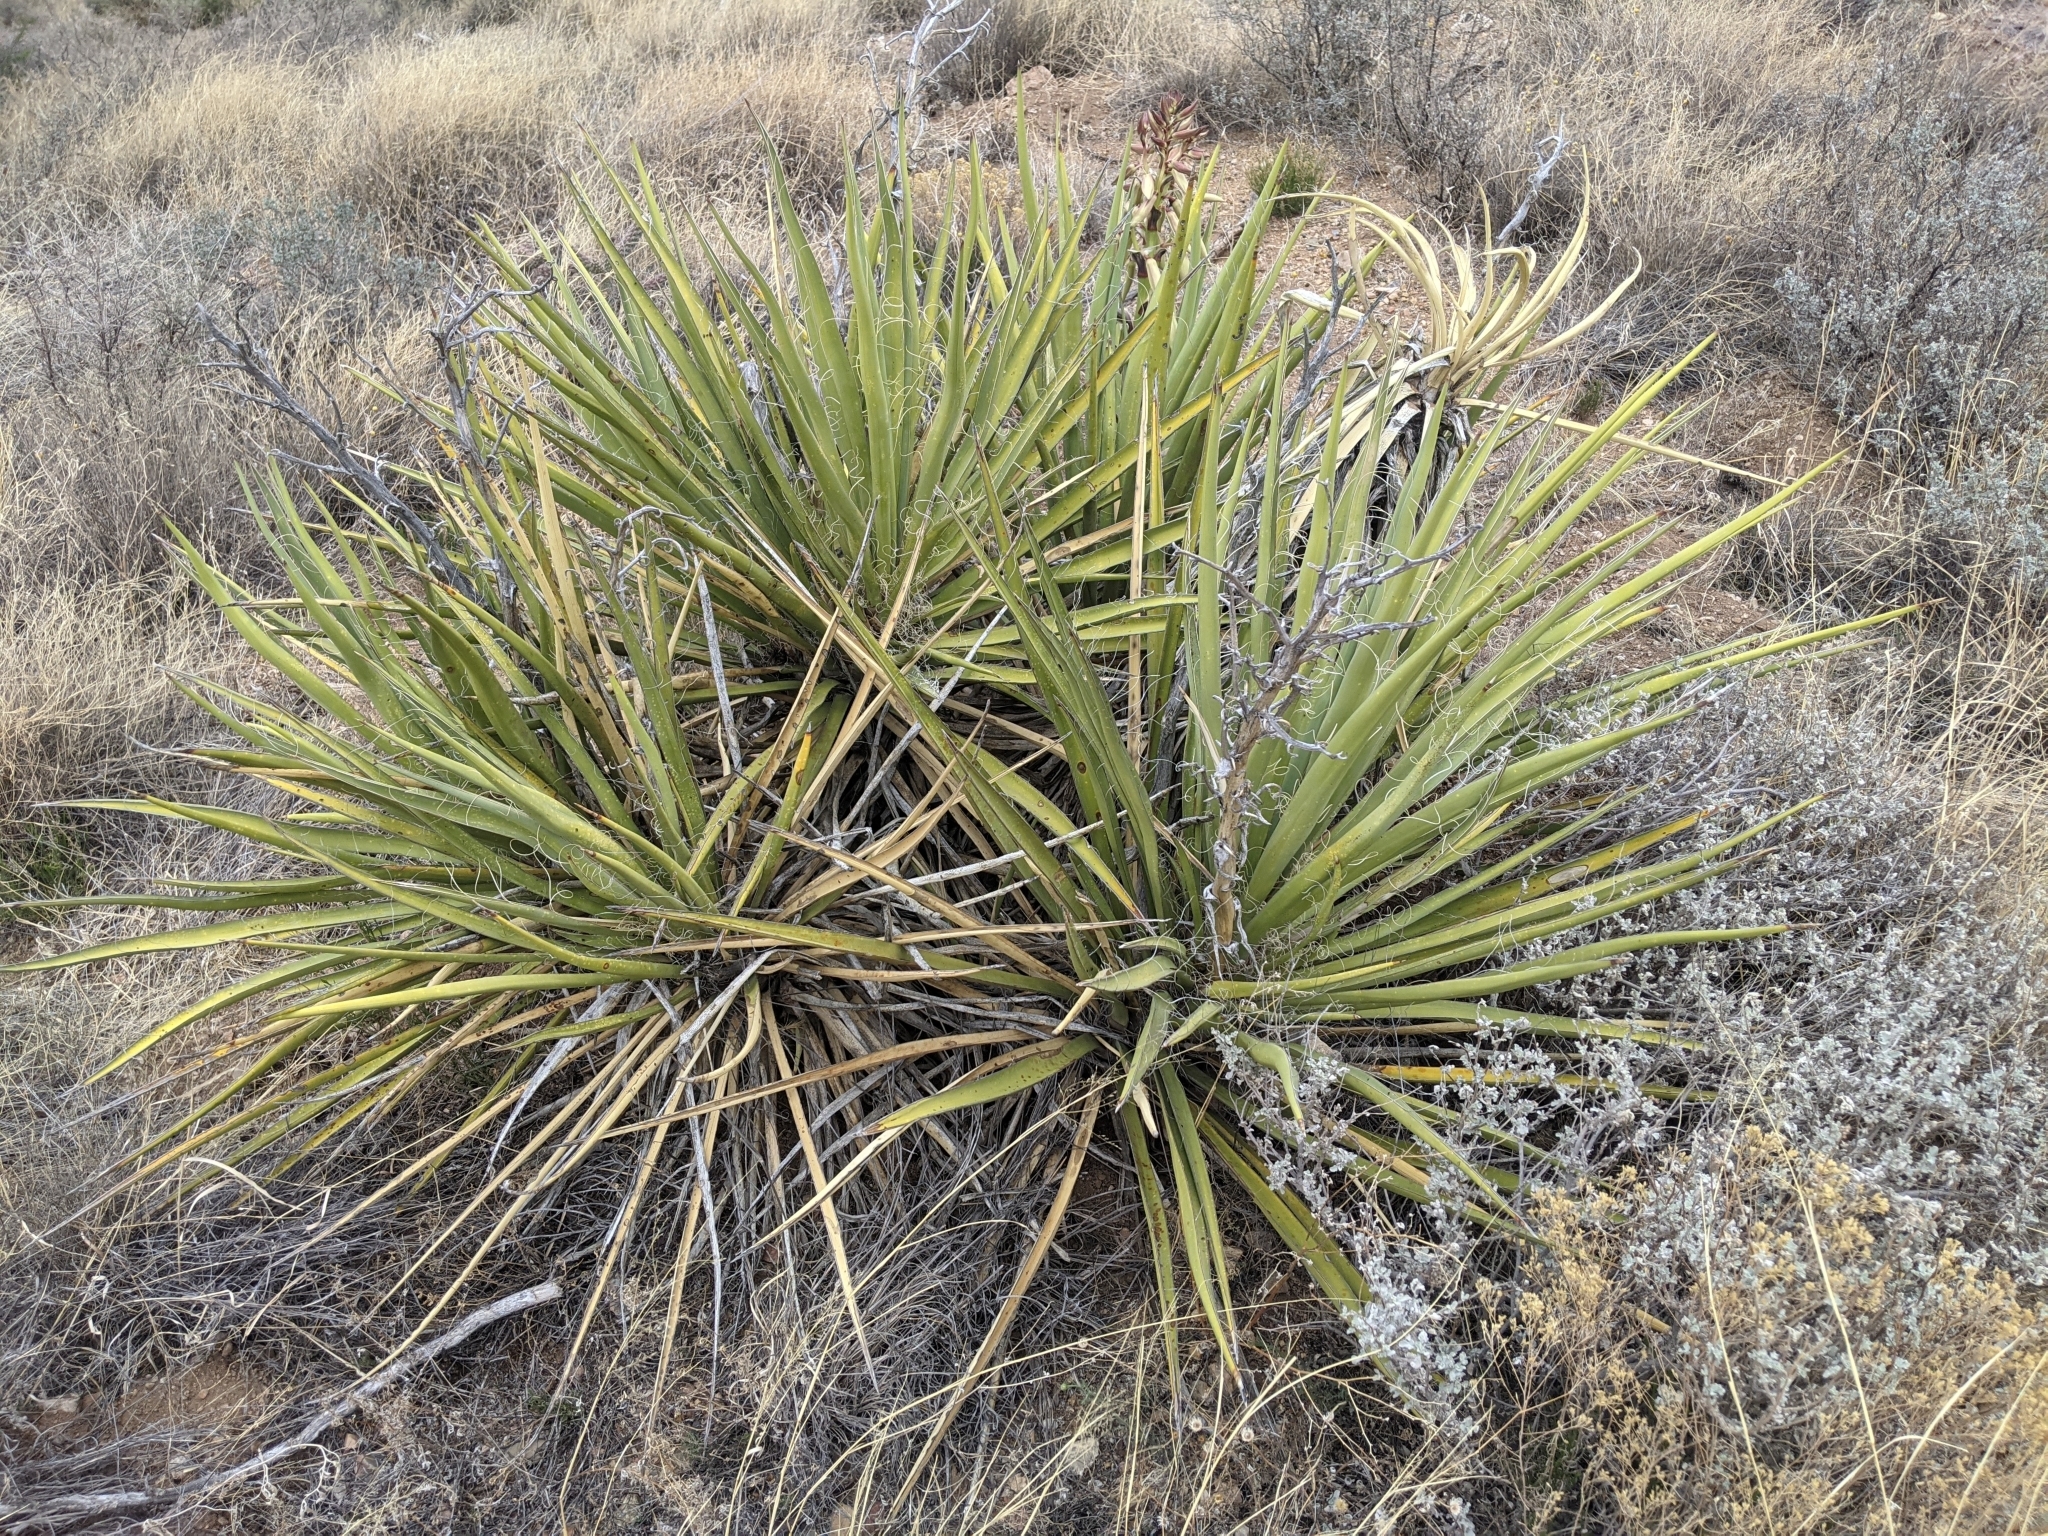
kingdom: Plantae
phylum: Tracheophyta
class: Liliopsida
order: Asparagales
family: Asparagaceae
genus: Yucca
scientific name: Yucca baccata
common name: Banana yucca
